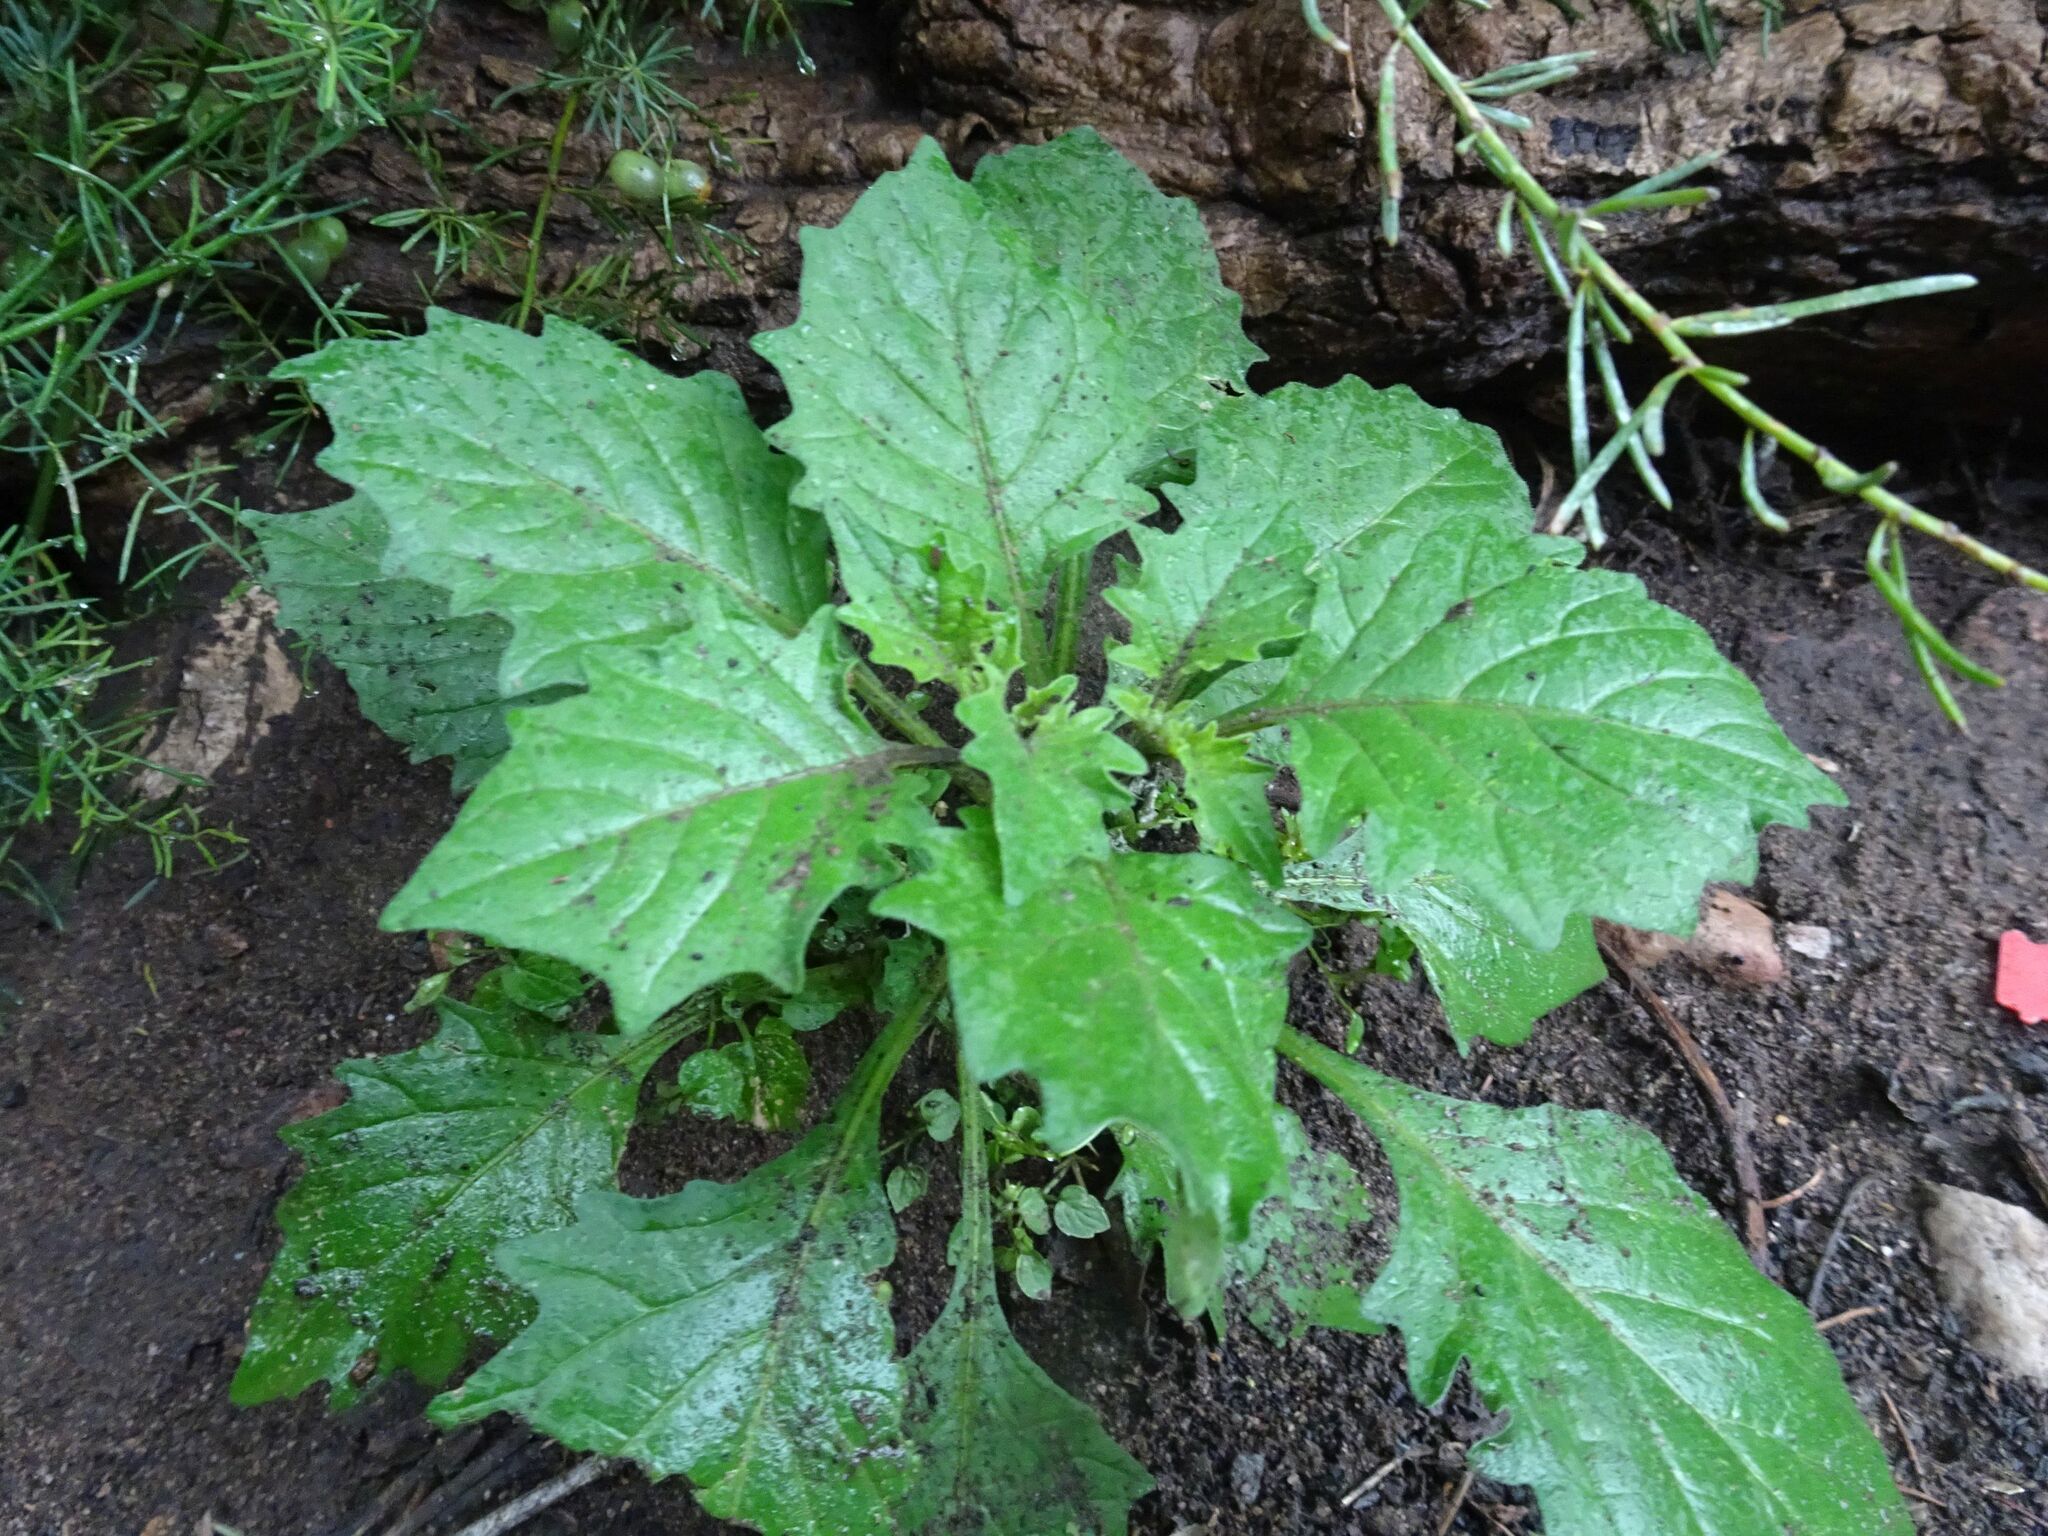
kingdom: Plantae
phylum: Tracheophyta
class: Magnoliopsida
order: Solanales
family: Solanaceae
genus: Solanum
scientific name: Solanum retroflexum
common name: Wonderberry
